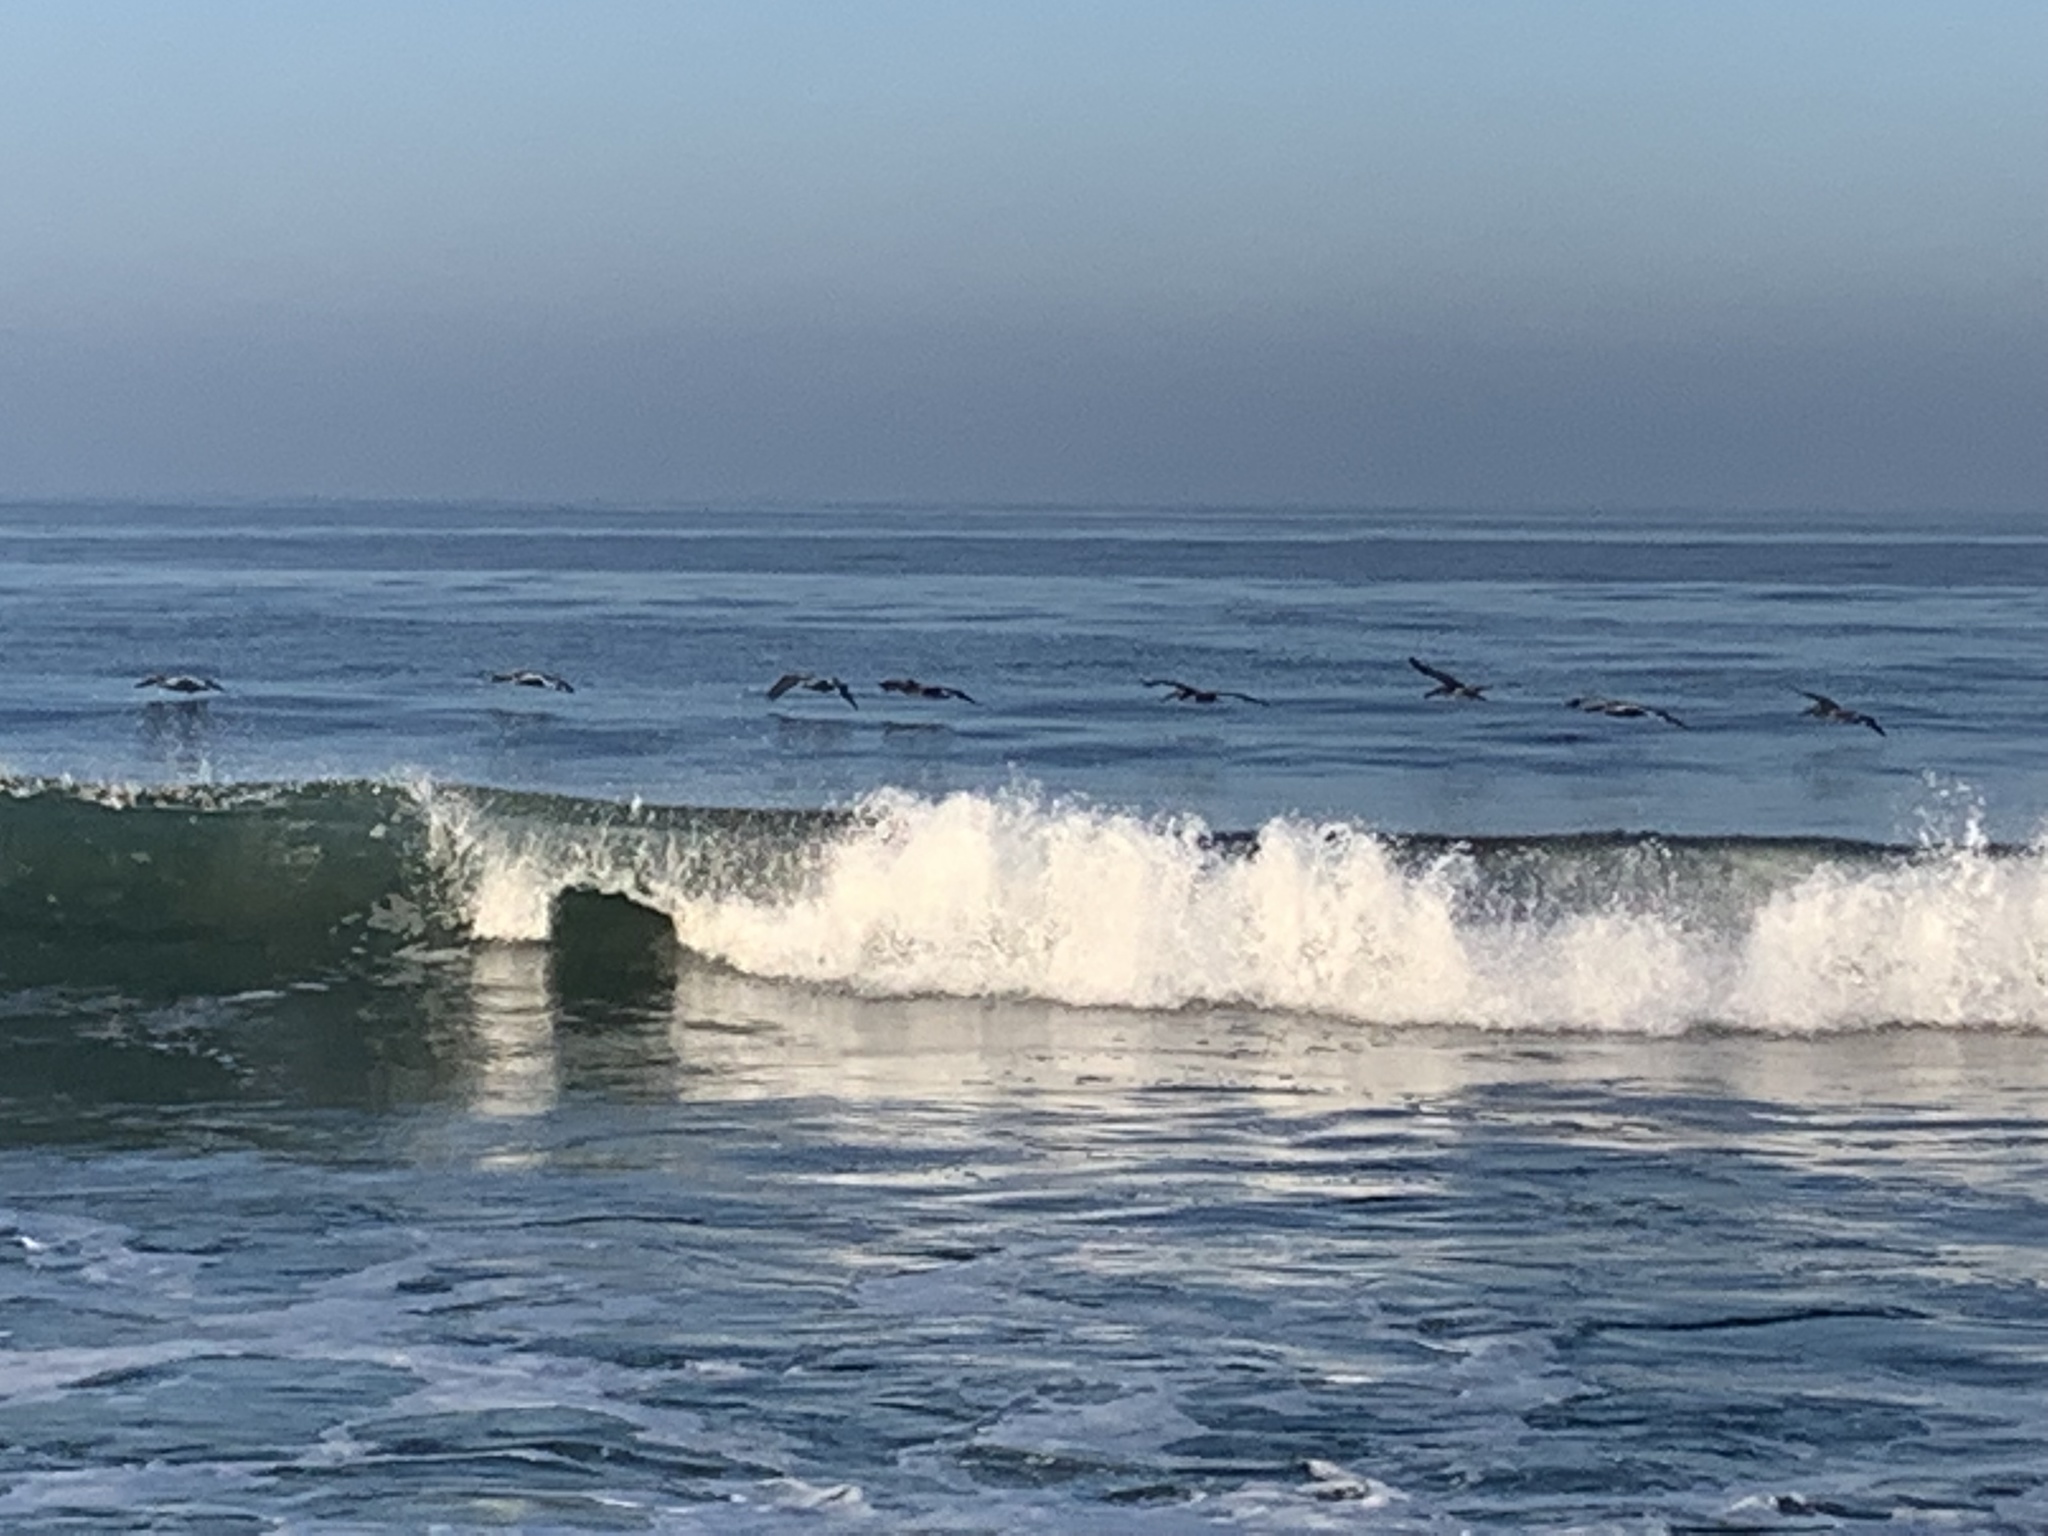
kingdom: Animalia
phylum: Chordata
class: Aves
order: Pelecaniformes
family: Pelecanidae
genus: Pelecanus
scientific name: Pelecanus occidentalis
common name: Brown pelican
